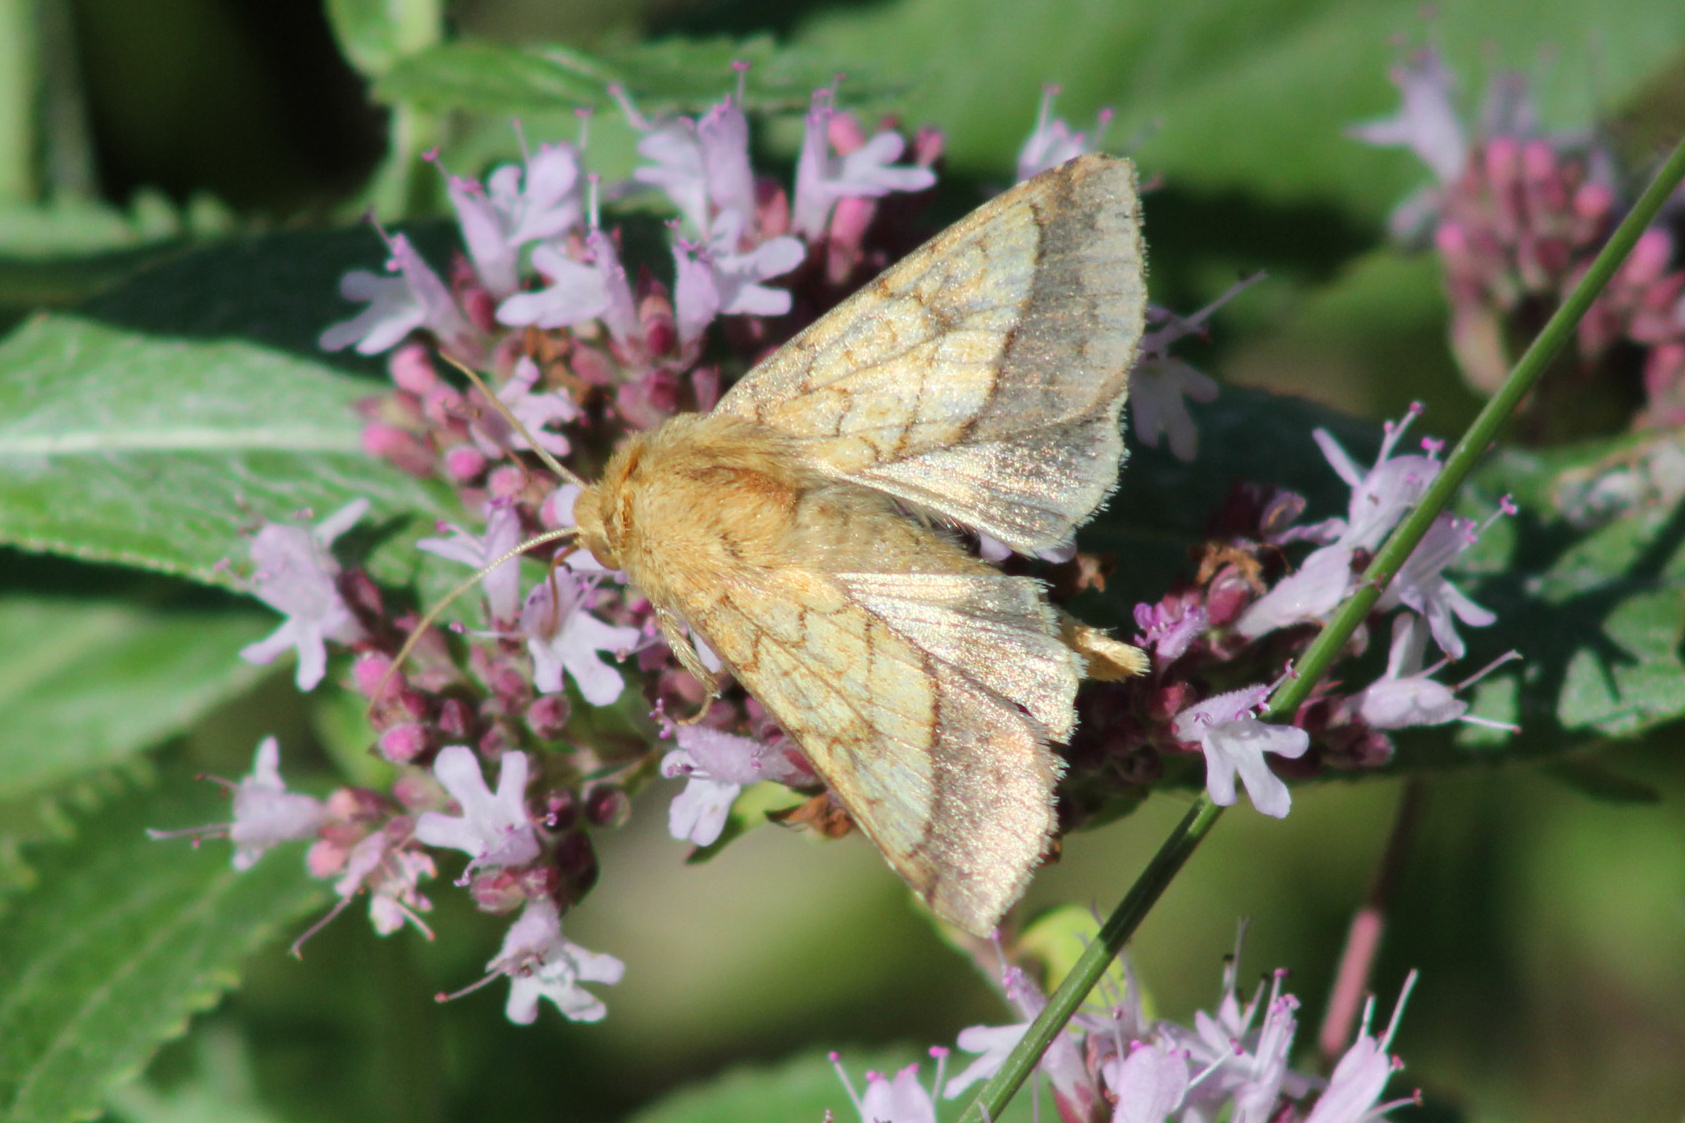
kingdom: Animalia
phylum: Arthropoda
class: Insecta
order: Lepidoptera
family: Noctuidae
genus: Pyrrhia
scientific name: Pyrrhia umbra
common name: Bordered sallow
